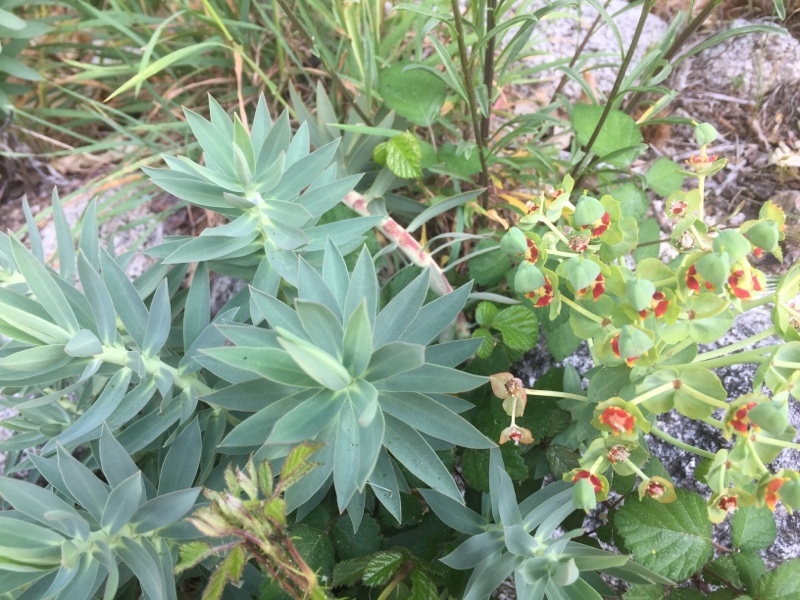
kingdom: Plantae
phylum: Tracheophyta
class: Magnoliopsida
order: Malpighiales
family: Euphorbiaceae
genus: Euphorbia
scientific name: Euphorbia oxyphylla
